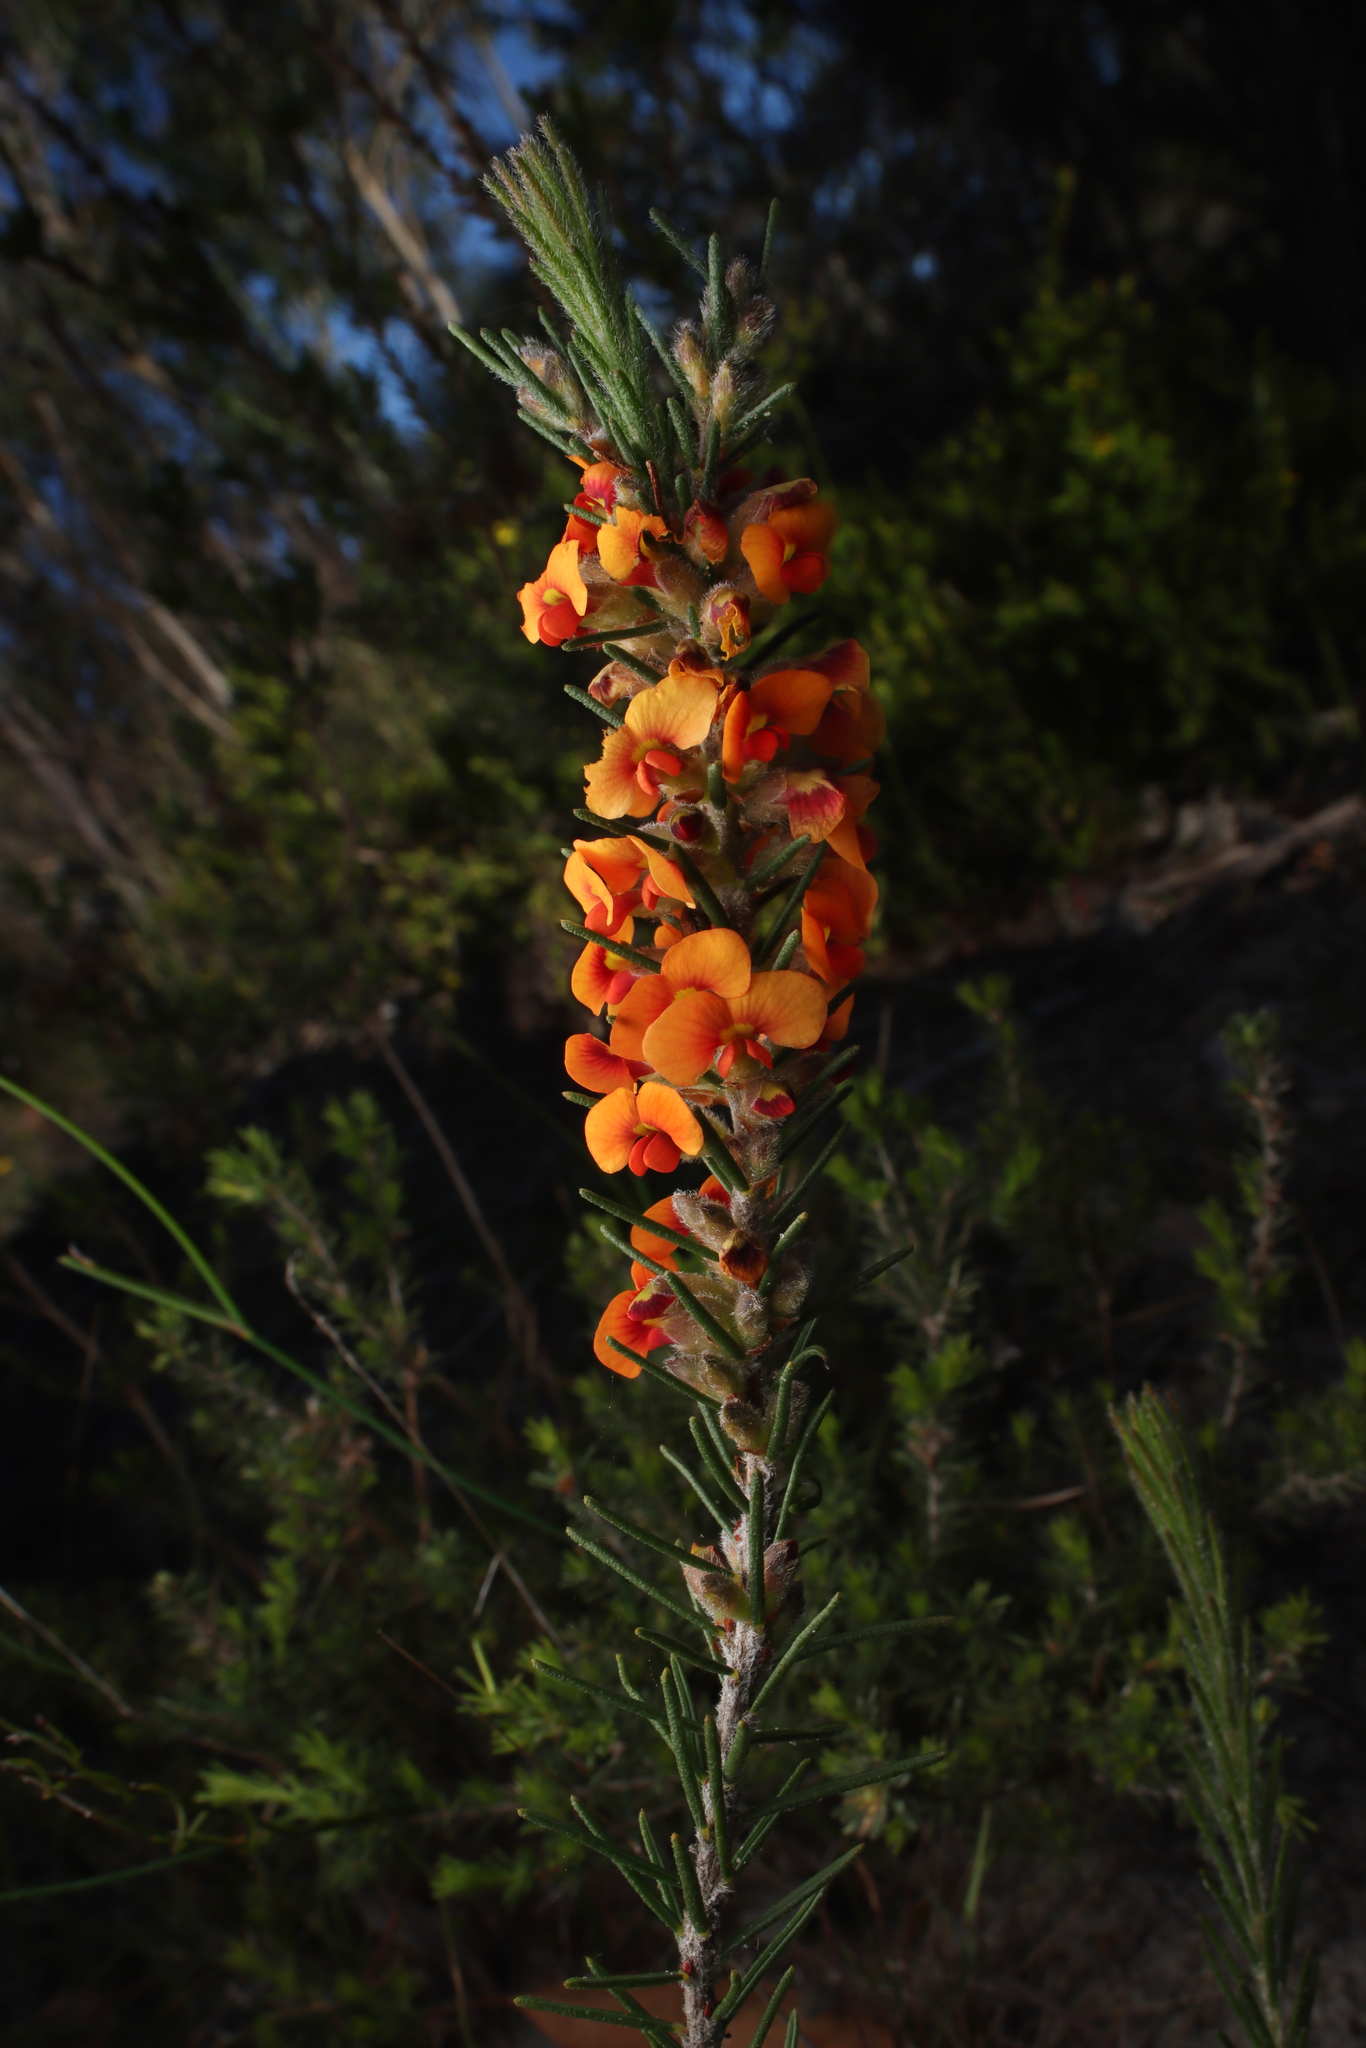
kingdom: Plantae
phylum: Tracheophyta
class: Magnoliopsida
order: Fabales
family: Fabaceae
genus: Dillwynia
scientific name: Dillwynia sericea
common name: Showy parrot-pea
